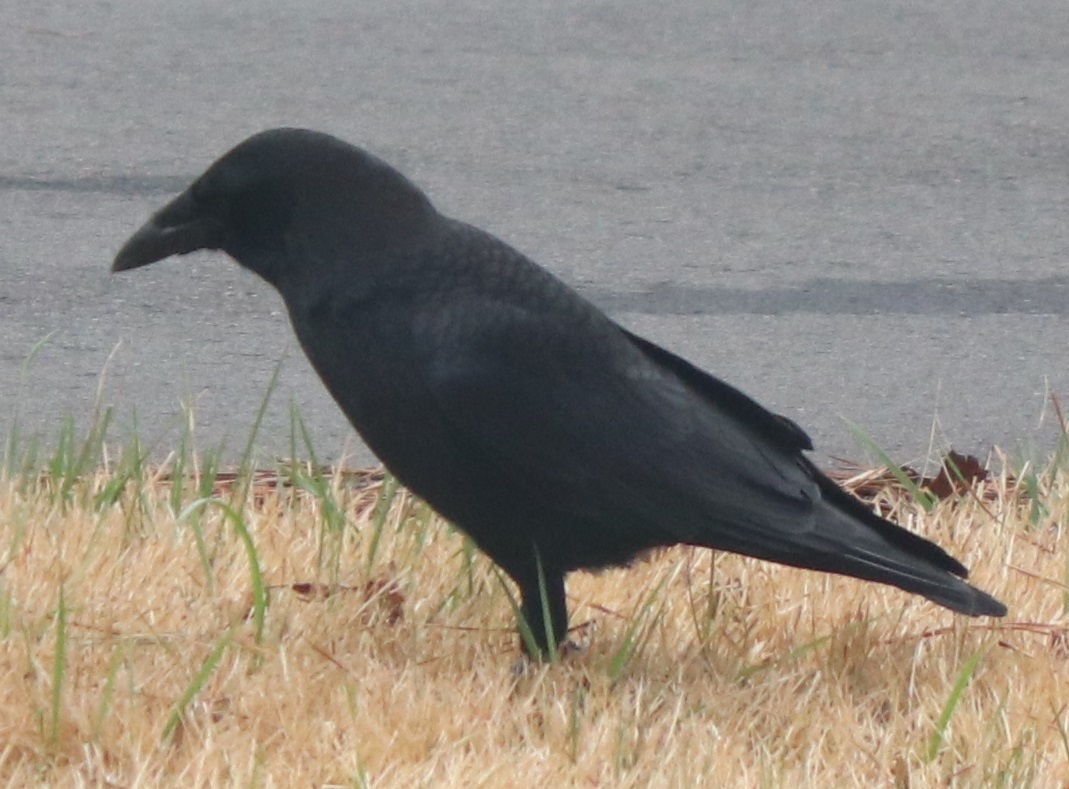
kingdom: Animalia
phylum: Chordata
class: Aves
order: Passeriformes
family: Corvidae
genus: Corvus
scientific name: Corvus brachyrhynchos
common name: American crow
